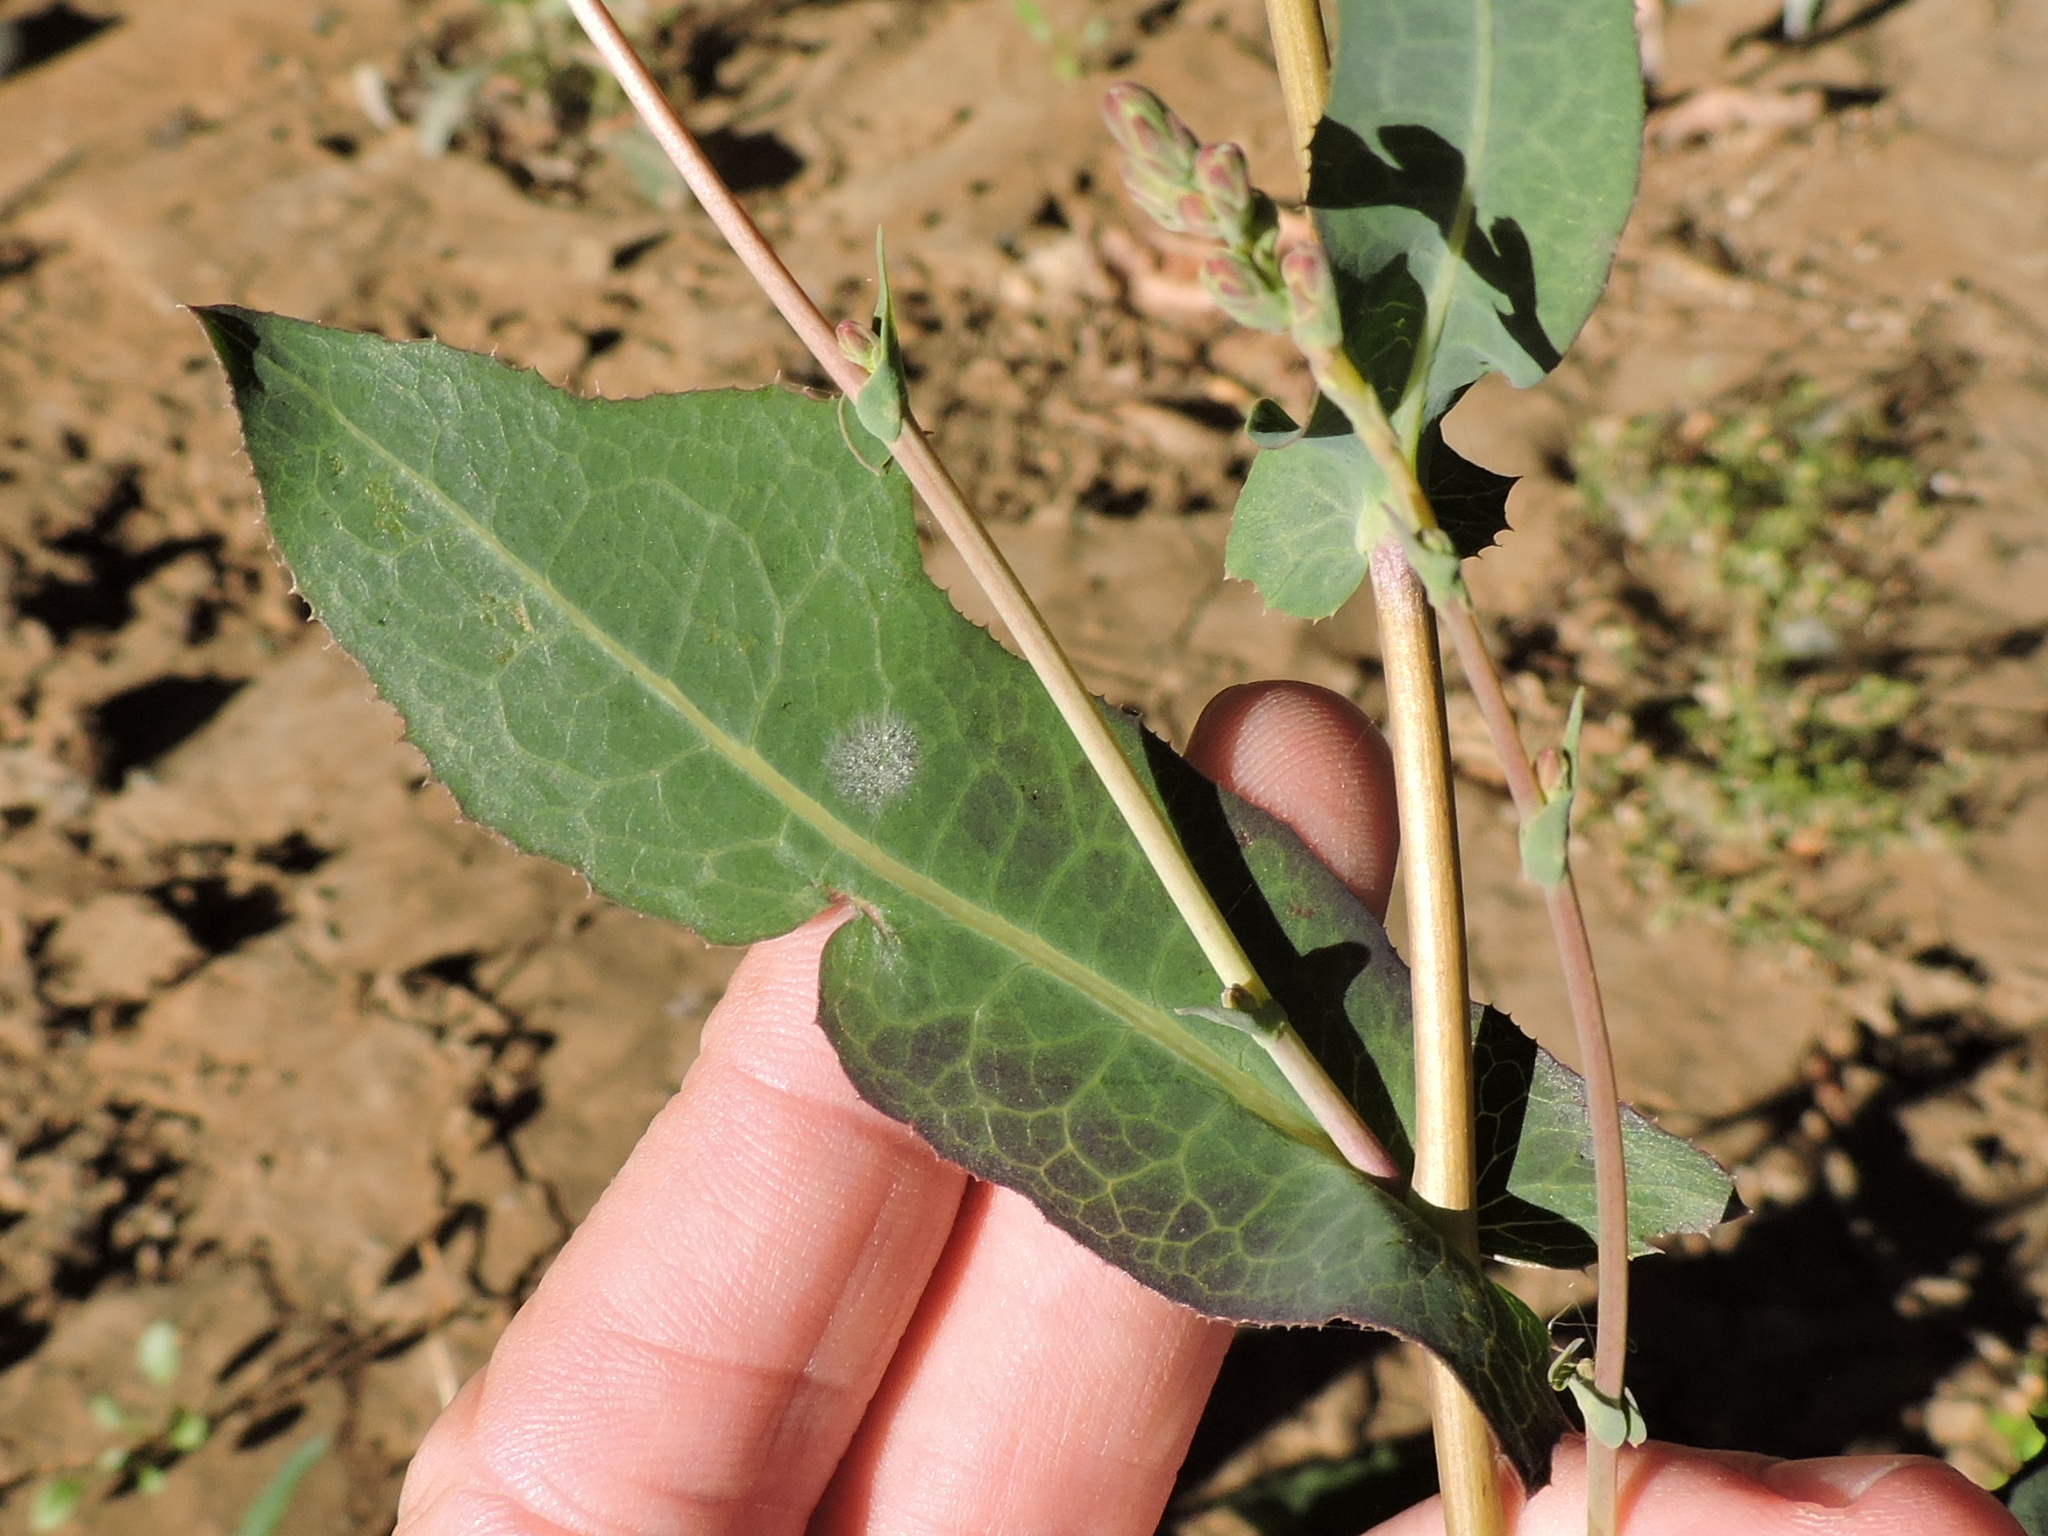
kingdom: Plantae
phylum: Tracheophyta
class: Magnoliopsida
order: Asterales
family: Asteraceae
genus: Lactuca
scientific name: Lactuca serriola
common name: Prickly lettuce
